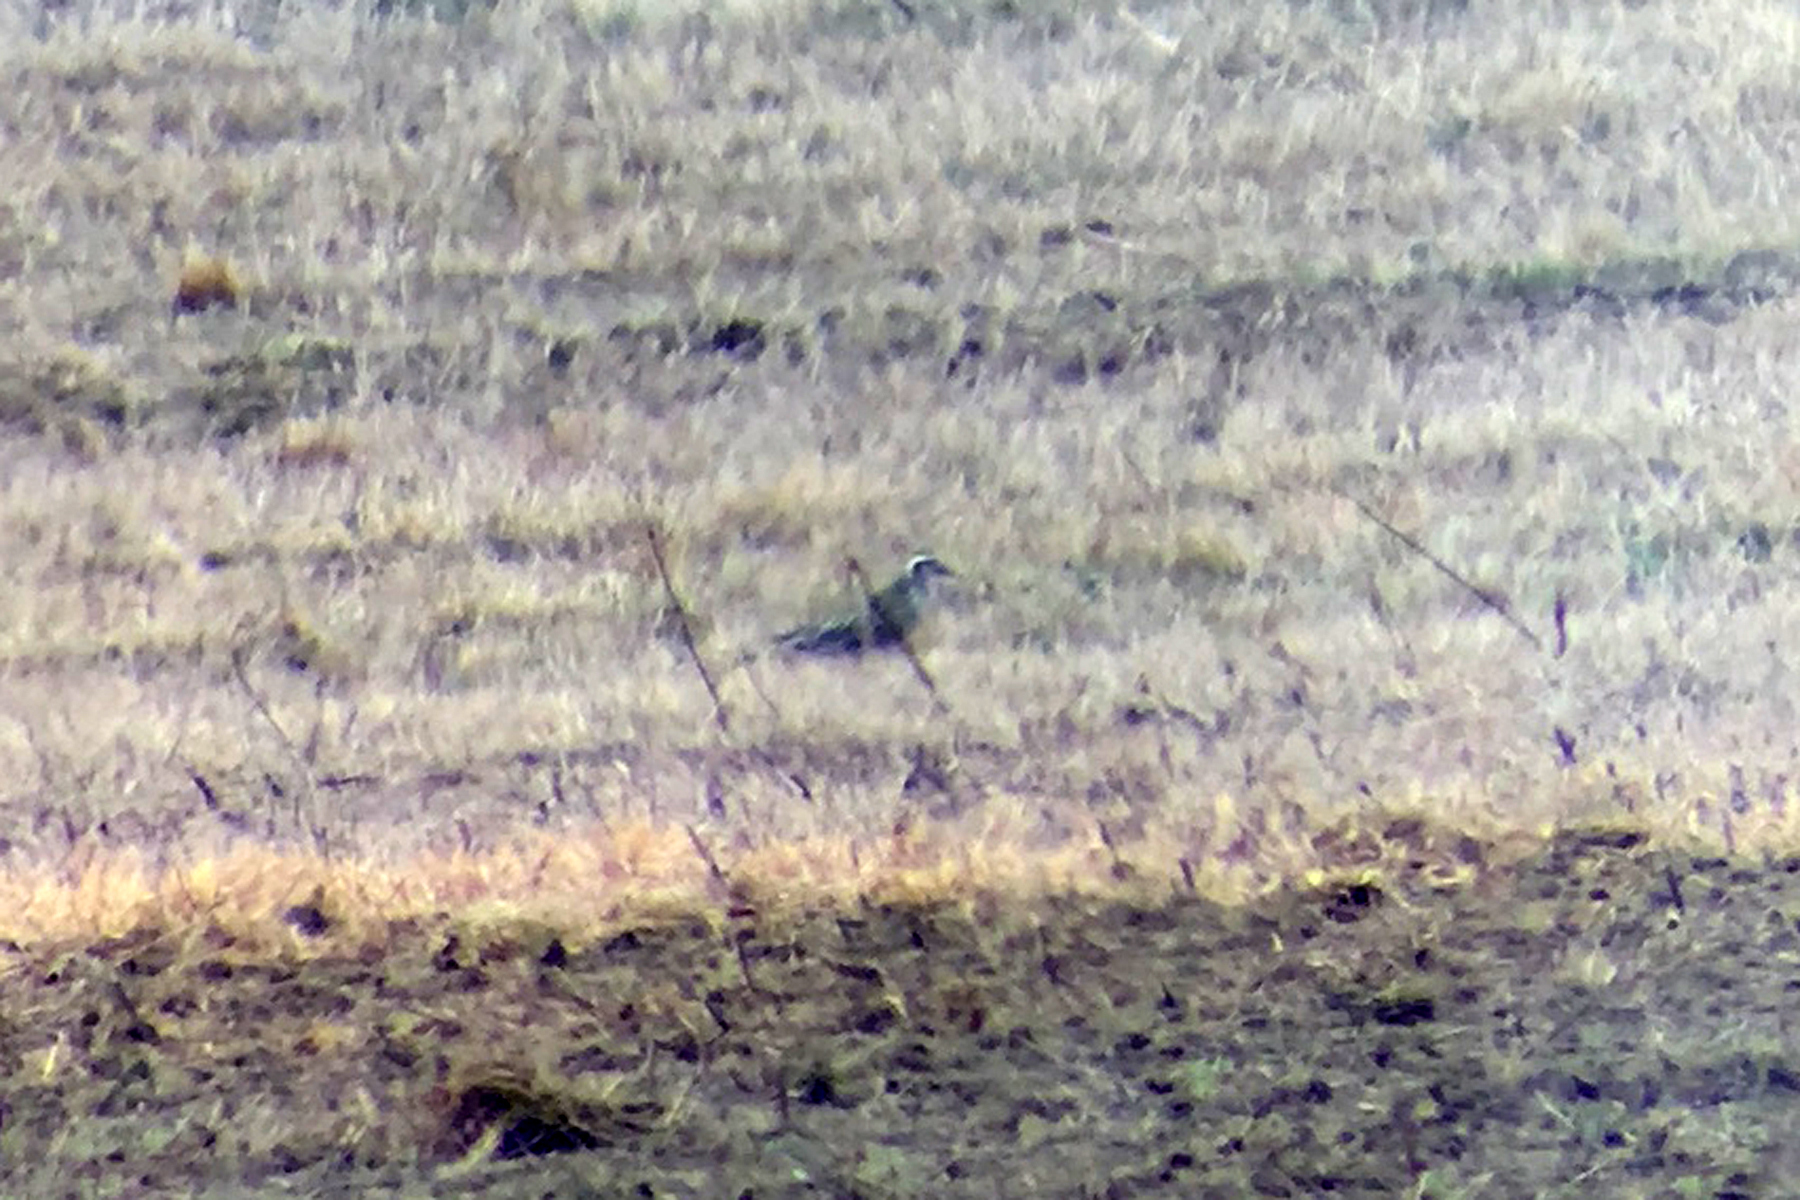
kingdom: Animalia
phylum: Chordata
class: Aves
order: Charadriiformes
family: Charadriidae
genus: Pluvialis
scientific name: Pluvialis dominica
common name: American golden plover
